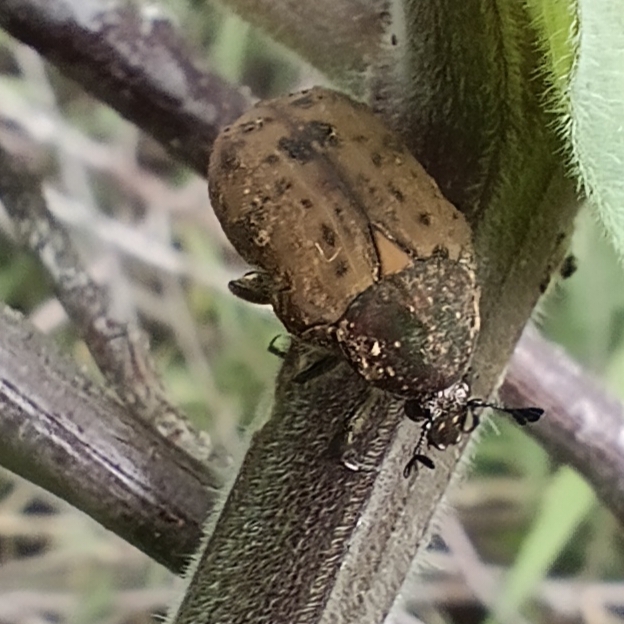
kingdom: Animalia
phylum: Arthropoda
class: Insecta
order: Coleoptera
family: Scarabaeidae
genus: Elaphinis
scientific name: Elaphinis irrorata
